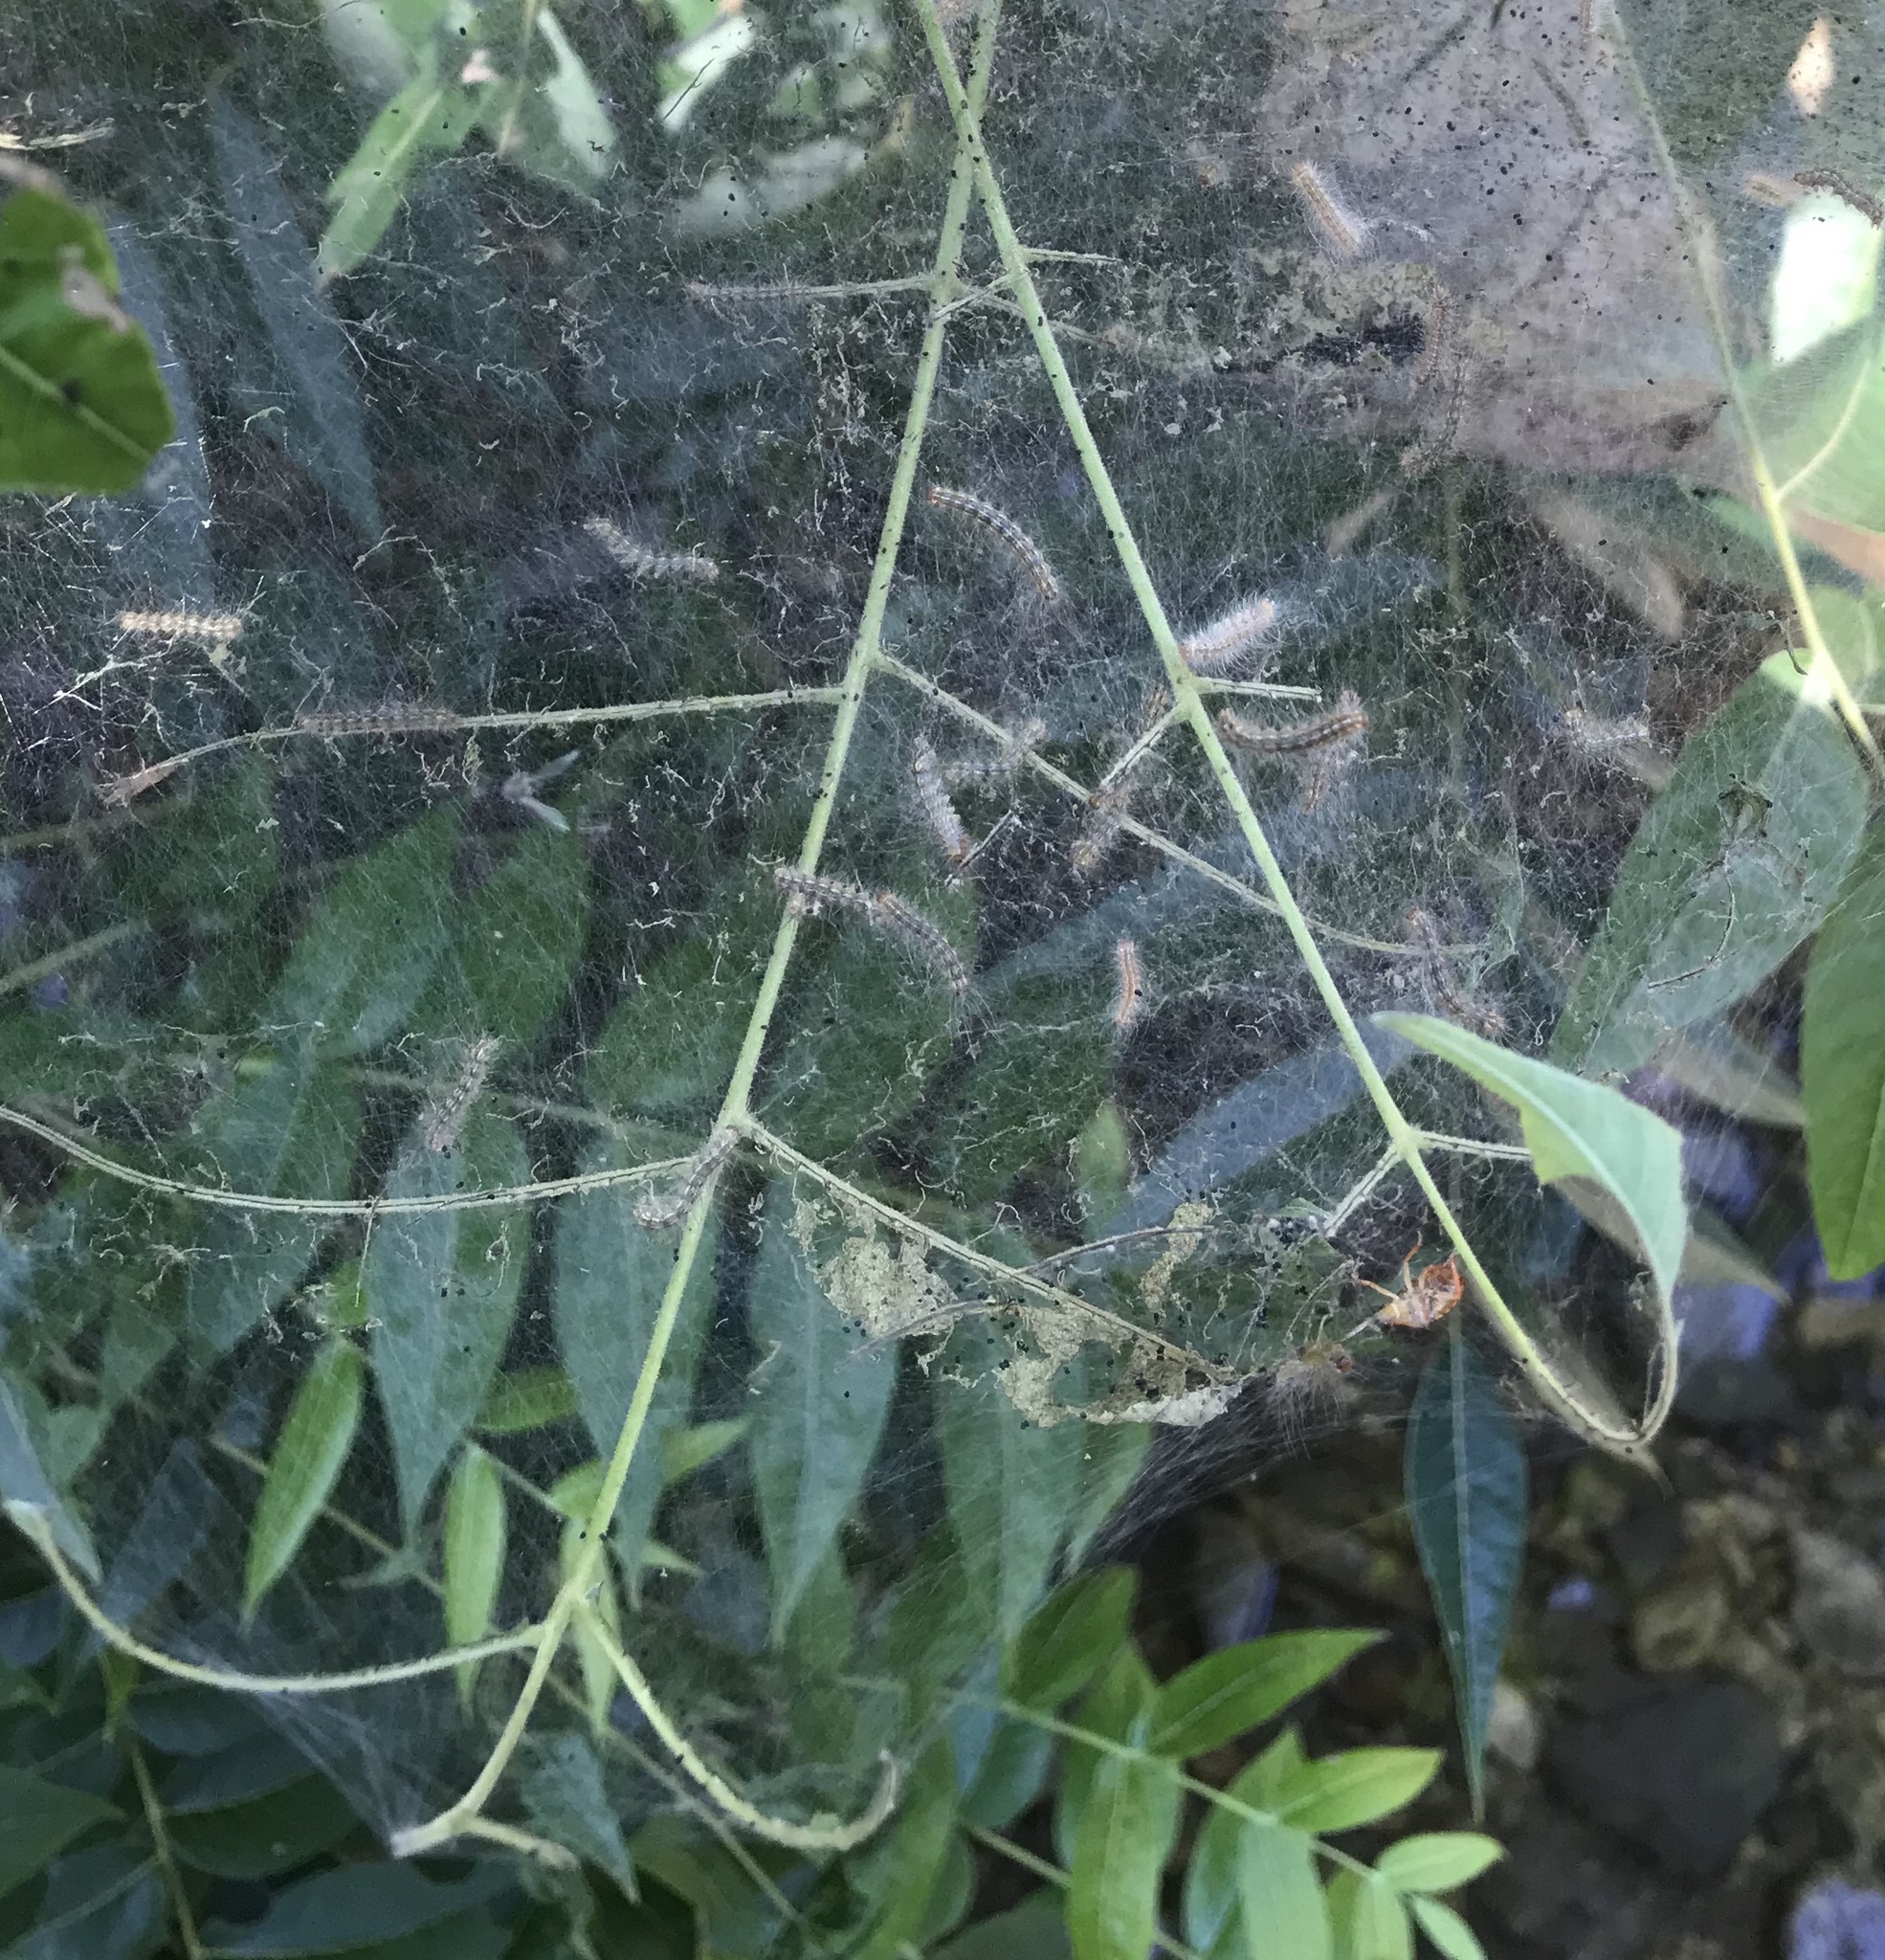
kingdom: Animalia
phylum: Arthropoda
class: Insecta
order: Lepidoptera
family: Erebidae
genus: Hyphantria
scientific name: Hyphantria cunea
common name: American white moth
